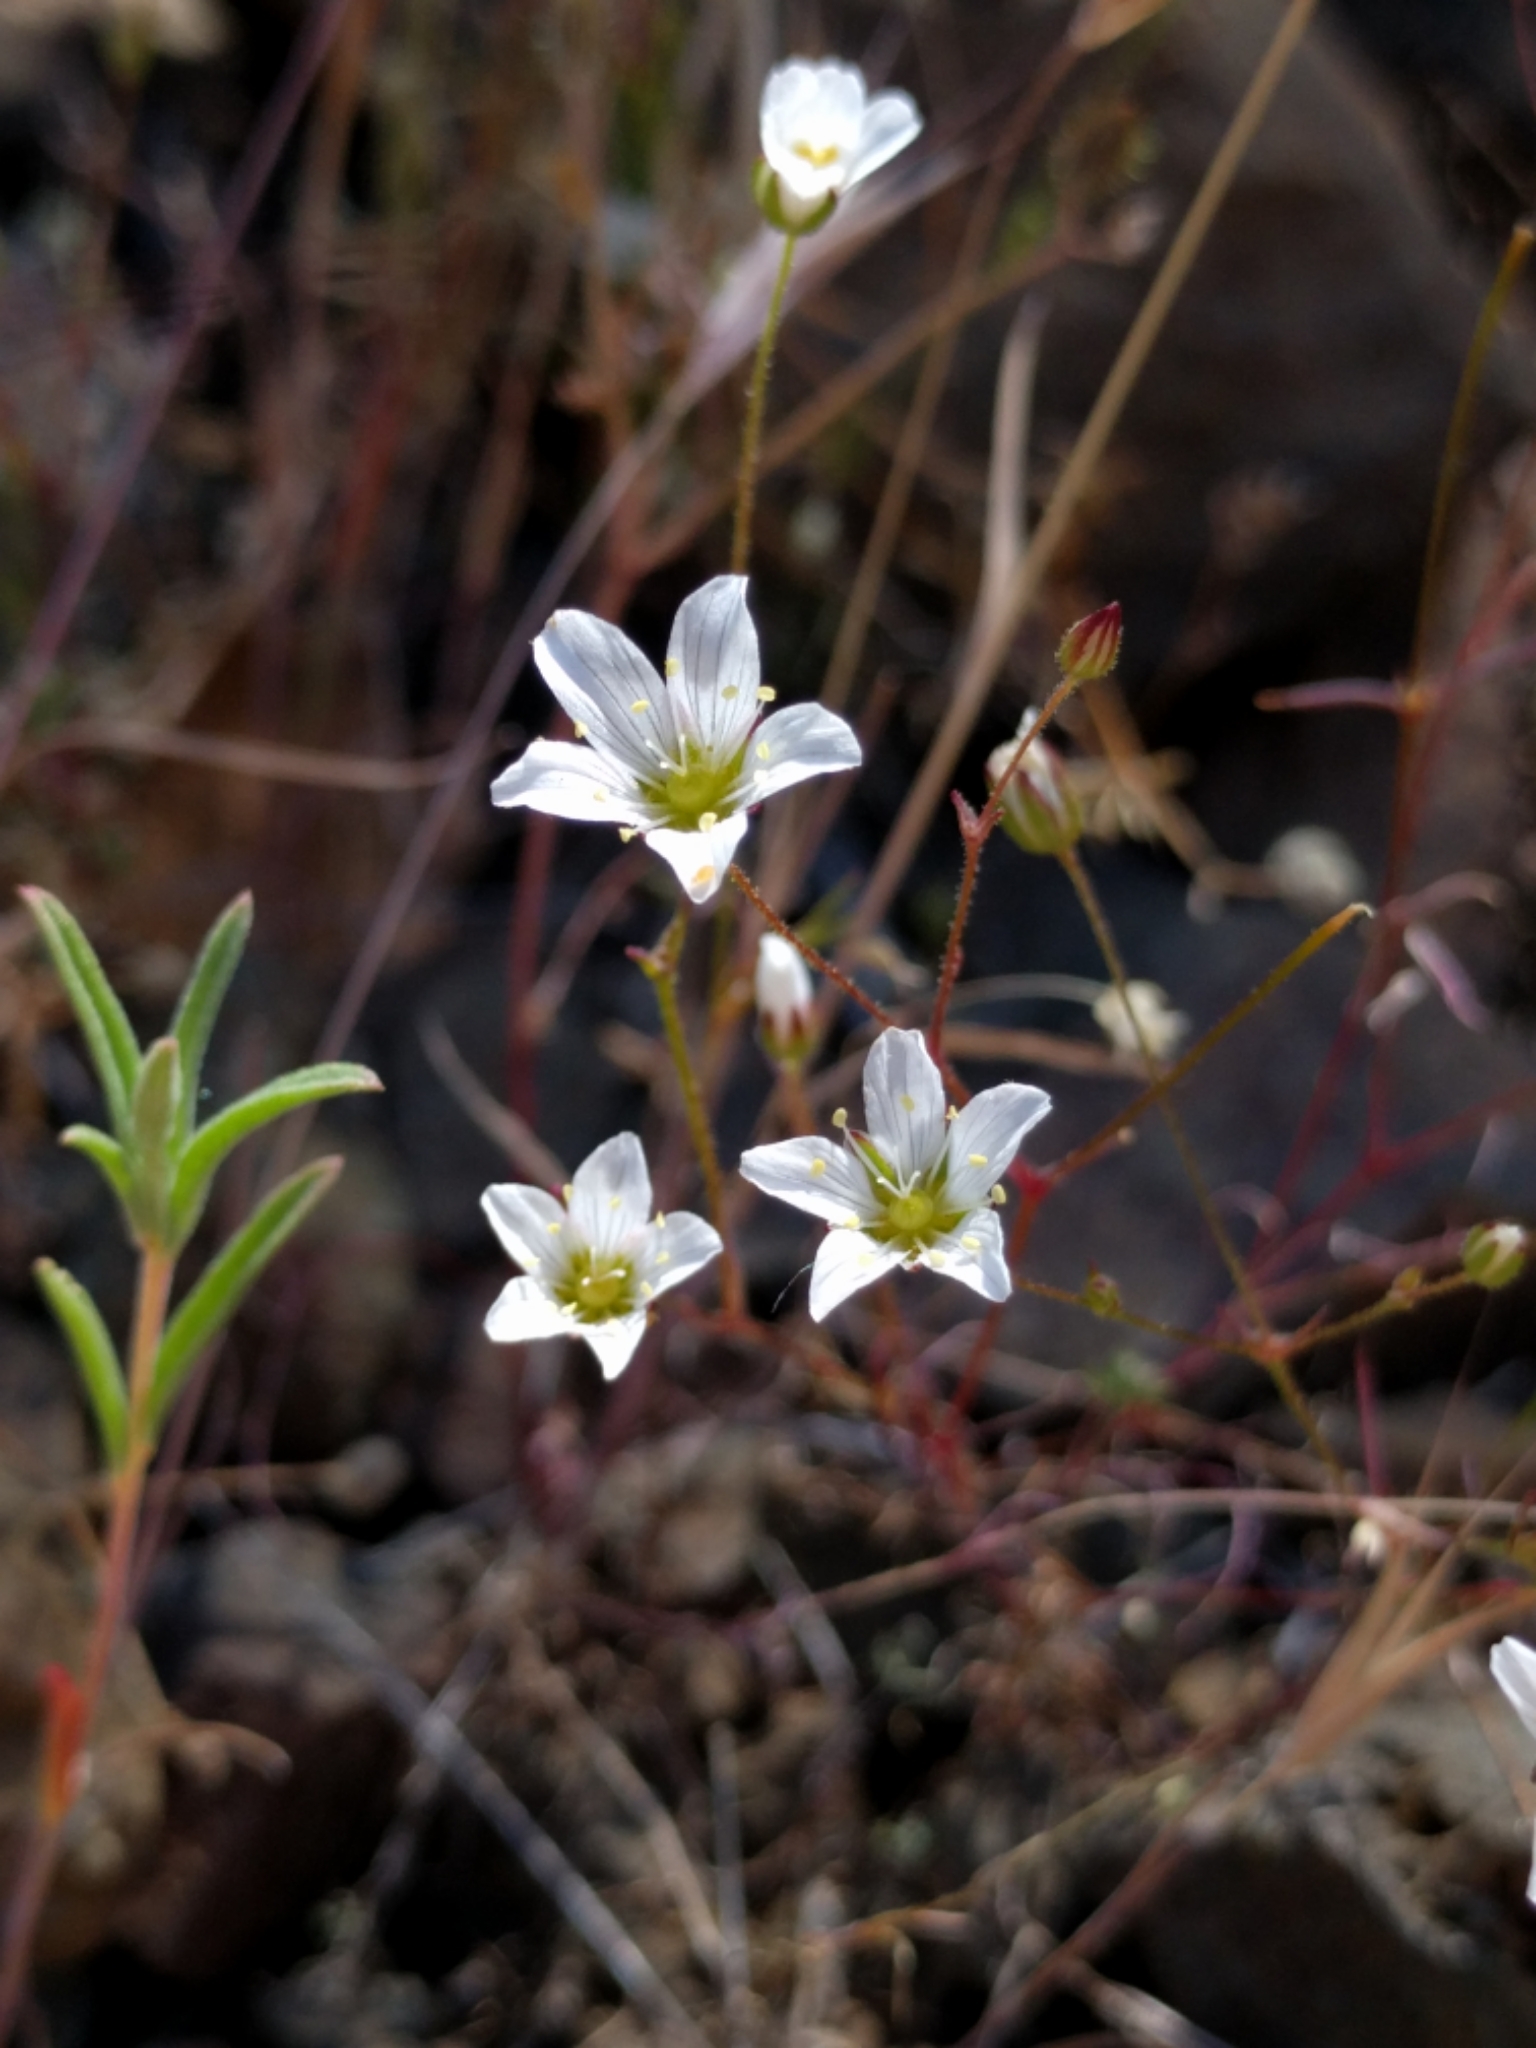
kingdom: Plantae
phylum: Tracheophyta
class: Magnoliopsida
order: Caryophyllales
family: Caryophyllaceae
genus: Sabulina
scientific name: Sabulina douglasii
